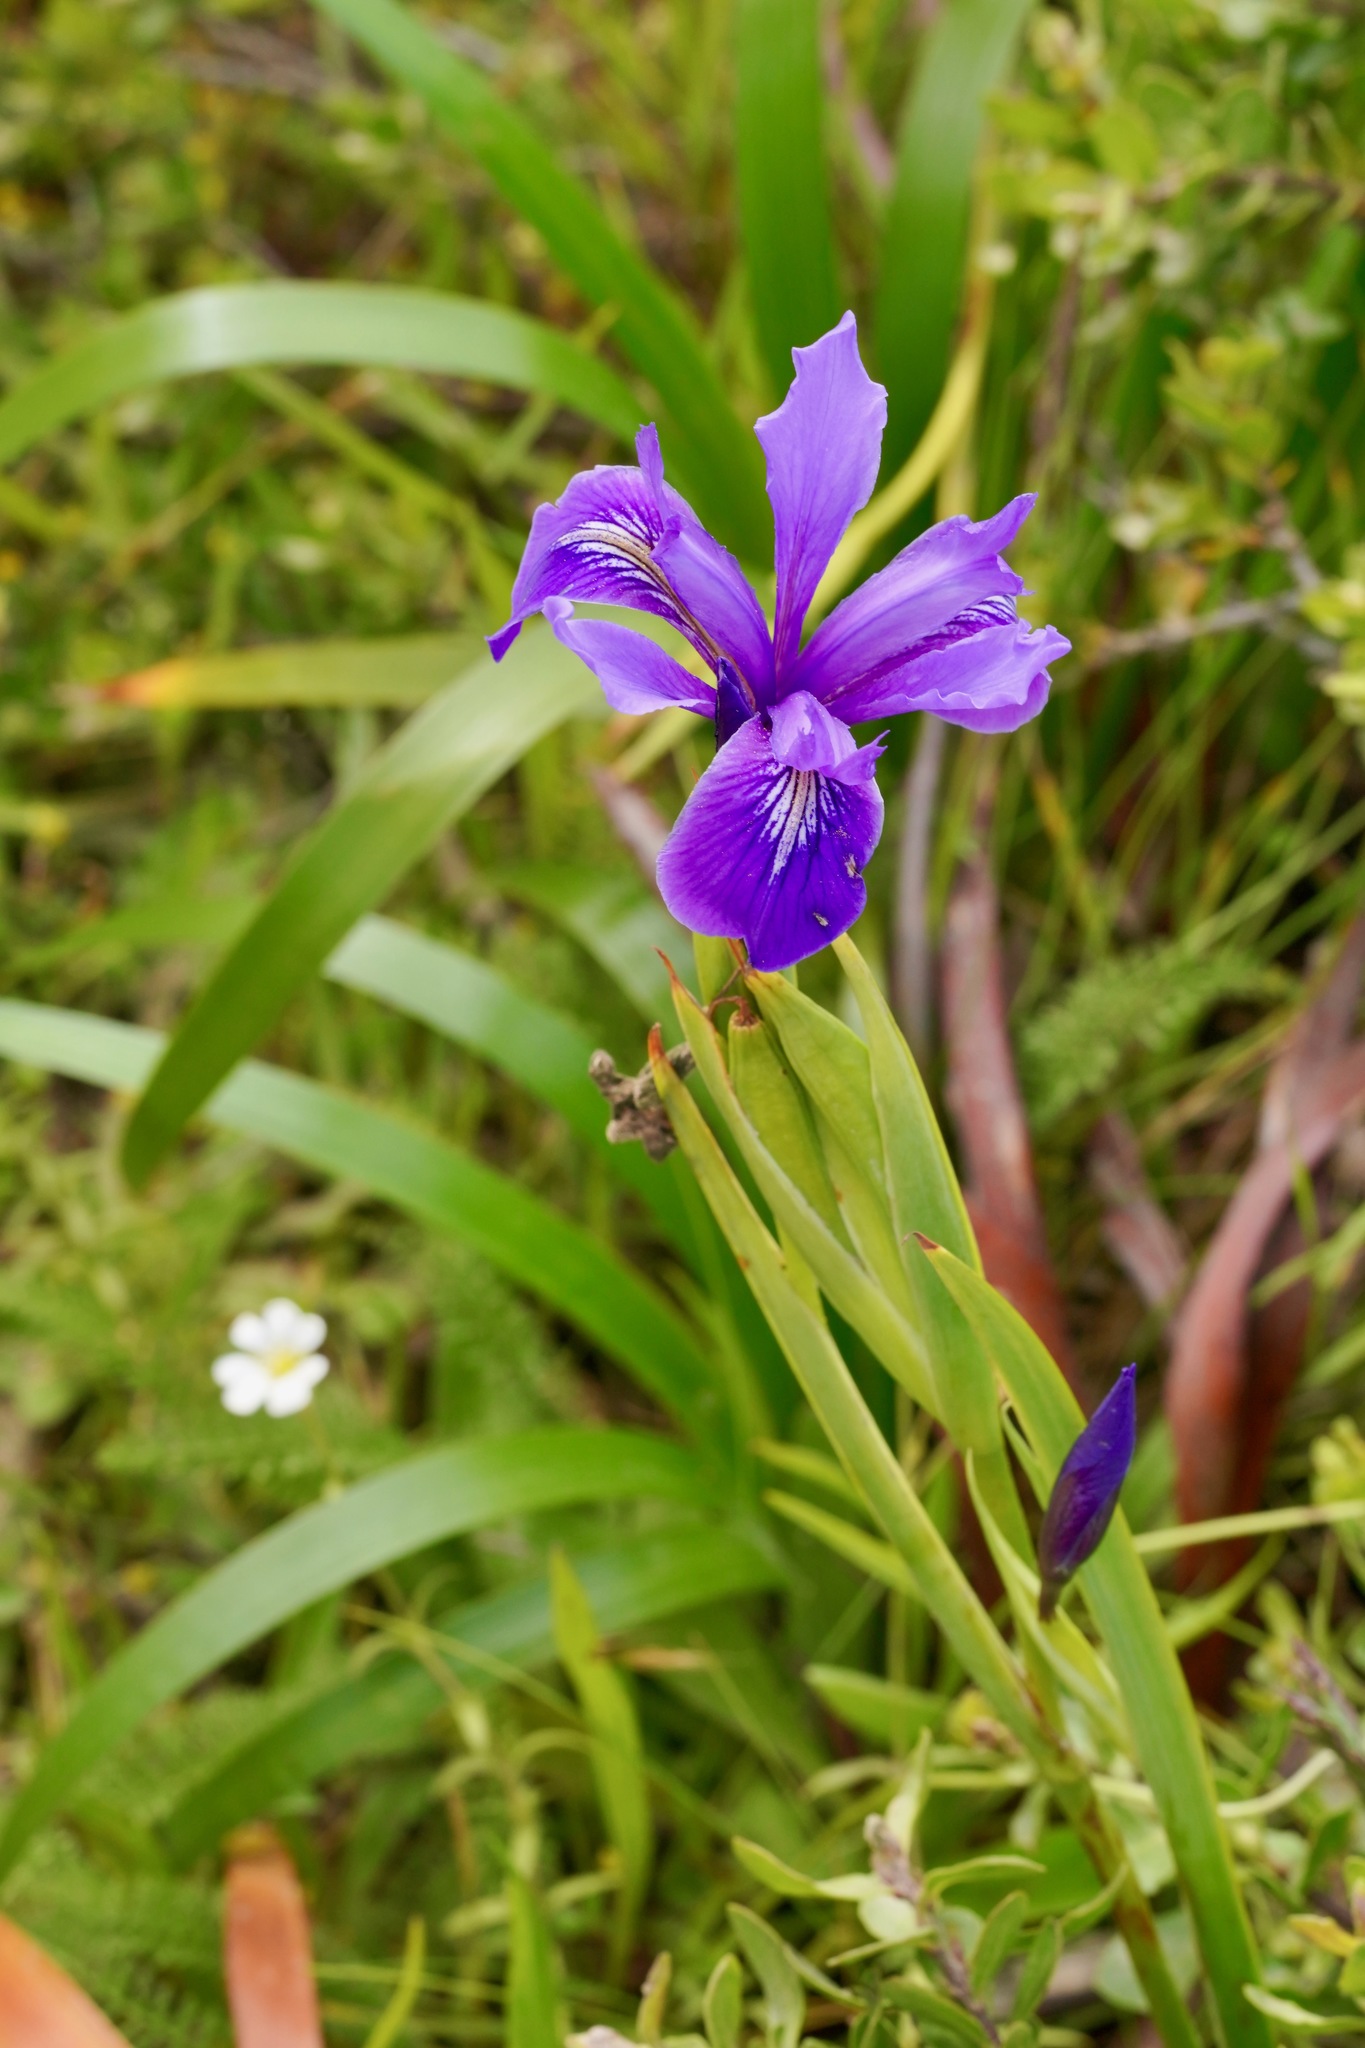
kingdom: Plantae
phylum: Tracheophyta
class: Liliopsida
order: Asparagales
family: Iridaceae
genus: Iris
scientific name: Iris douglasiana
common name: Marin iris
